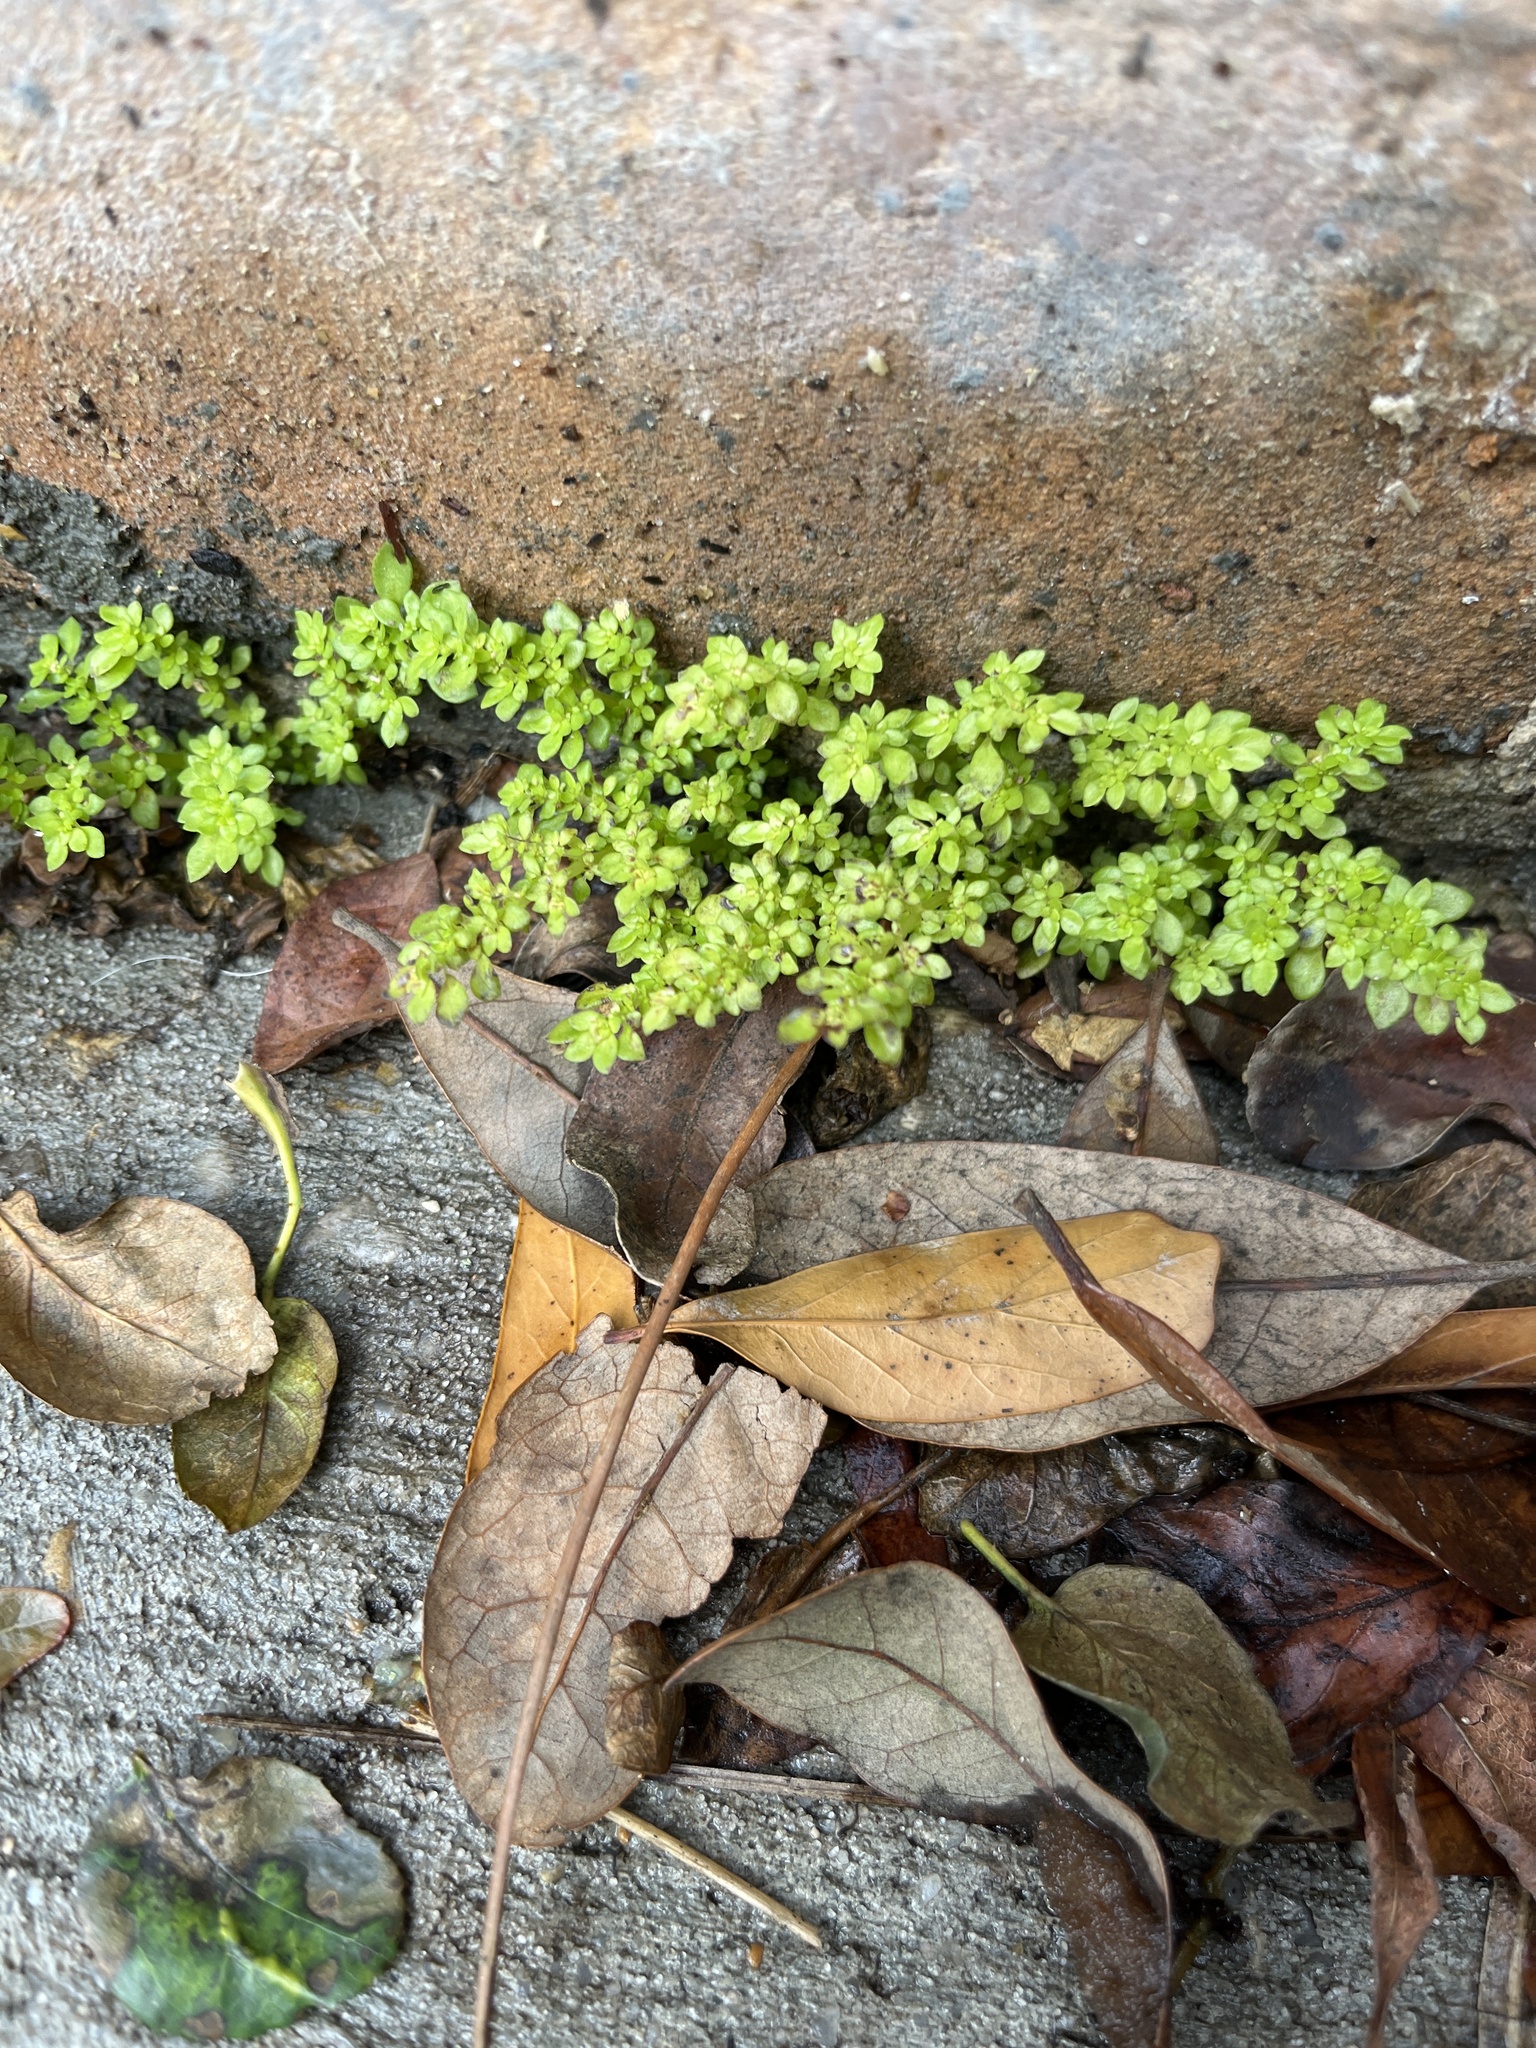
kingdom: Plantae
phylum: Tracheophyta
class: Magnoliopsida
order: Rosales
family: Urticaceae
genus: Pilea
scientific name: Pilea microphylla
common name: Artillery-plant
